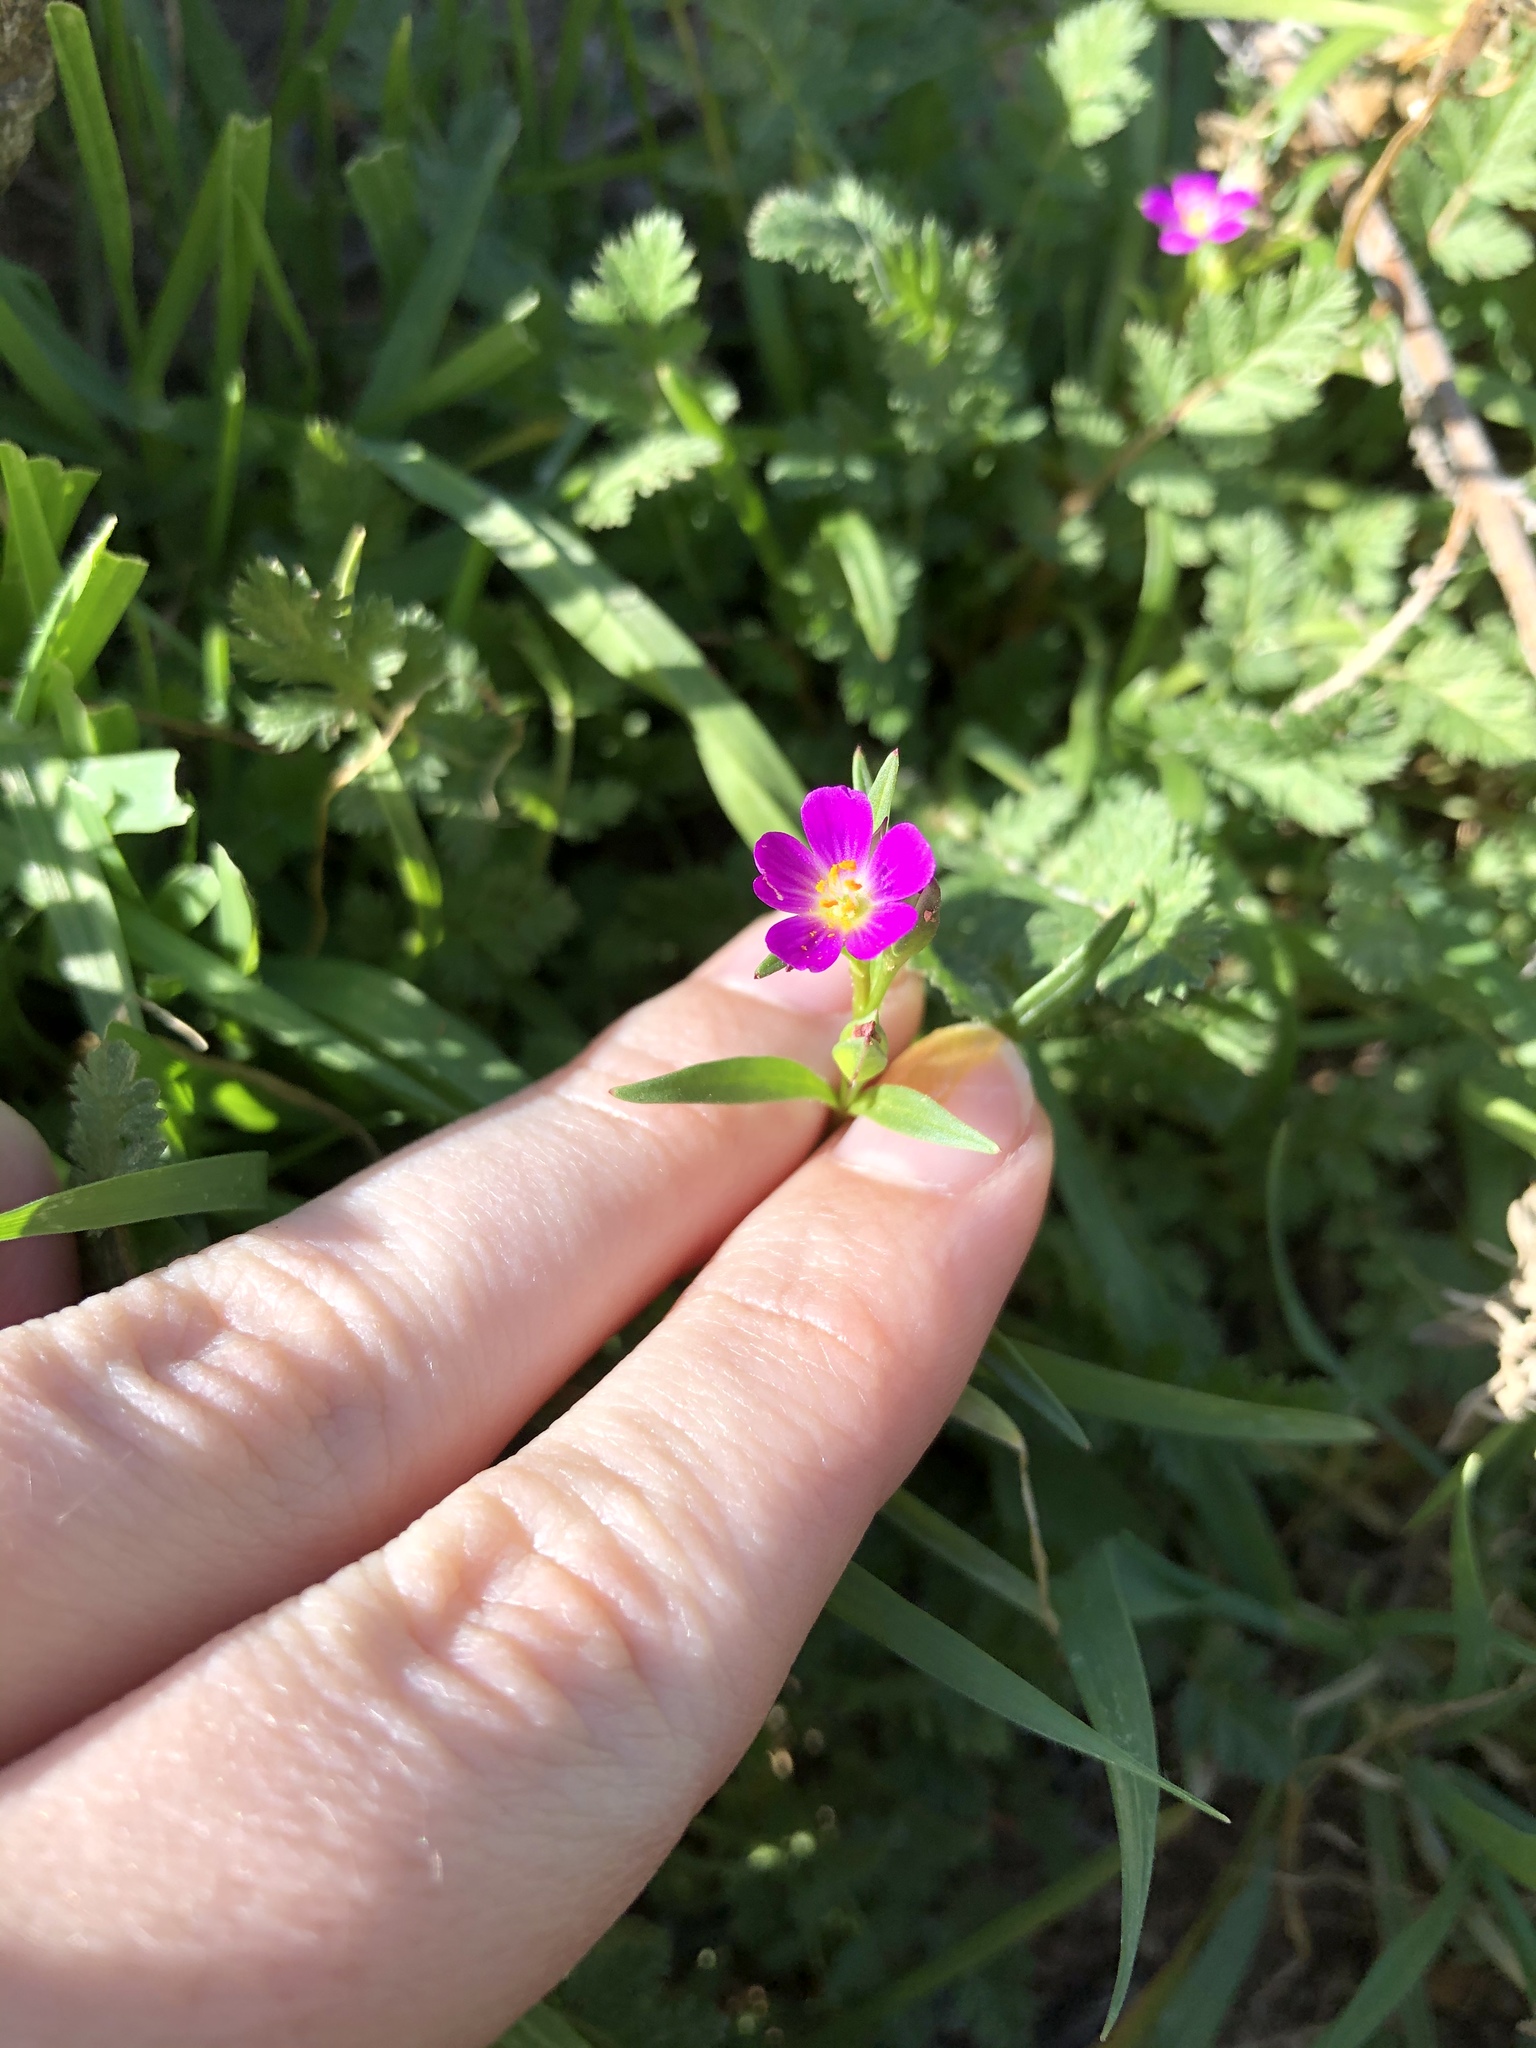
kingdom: Plantae
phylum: Tracheophyta
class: Magnoliopsida
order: Caryophyllales
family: Montiaceae
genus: Calandrinia
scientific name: Calandrinia menziesii
